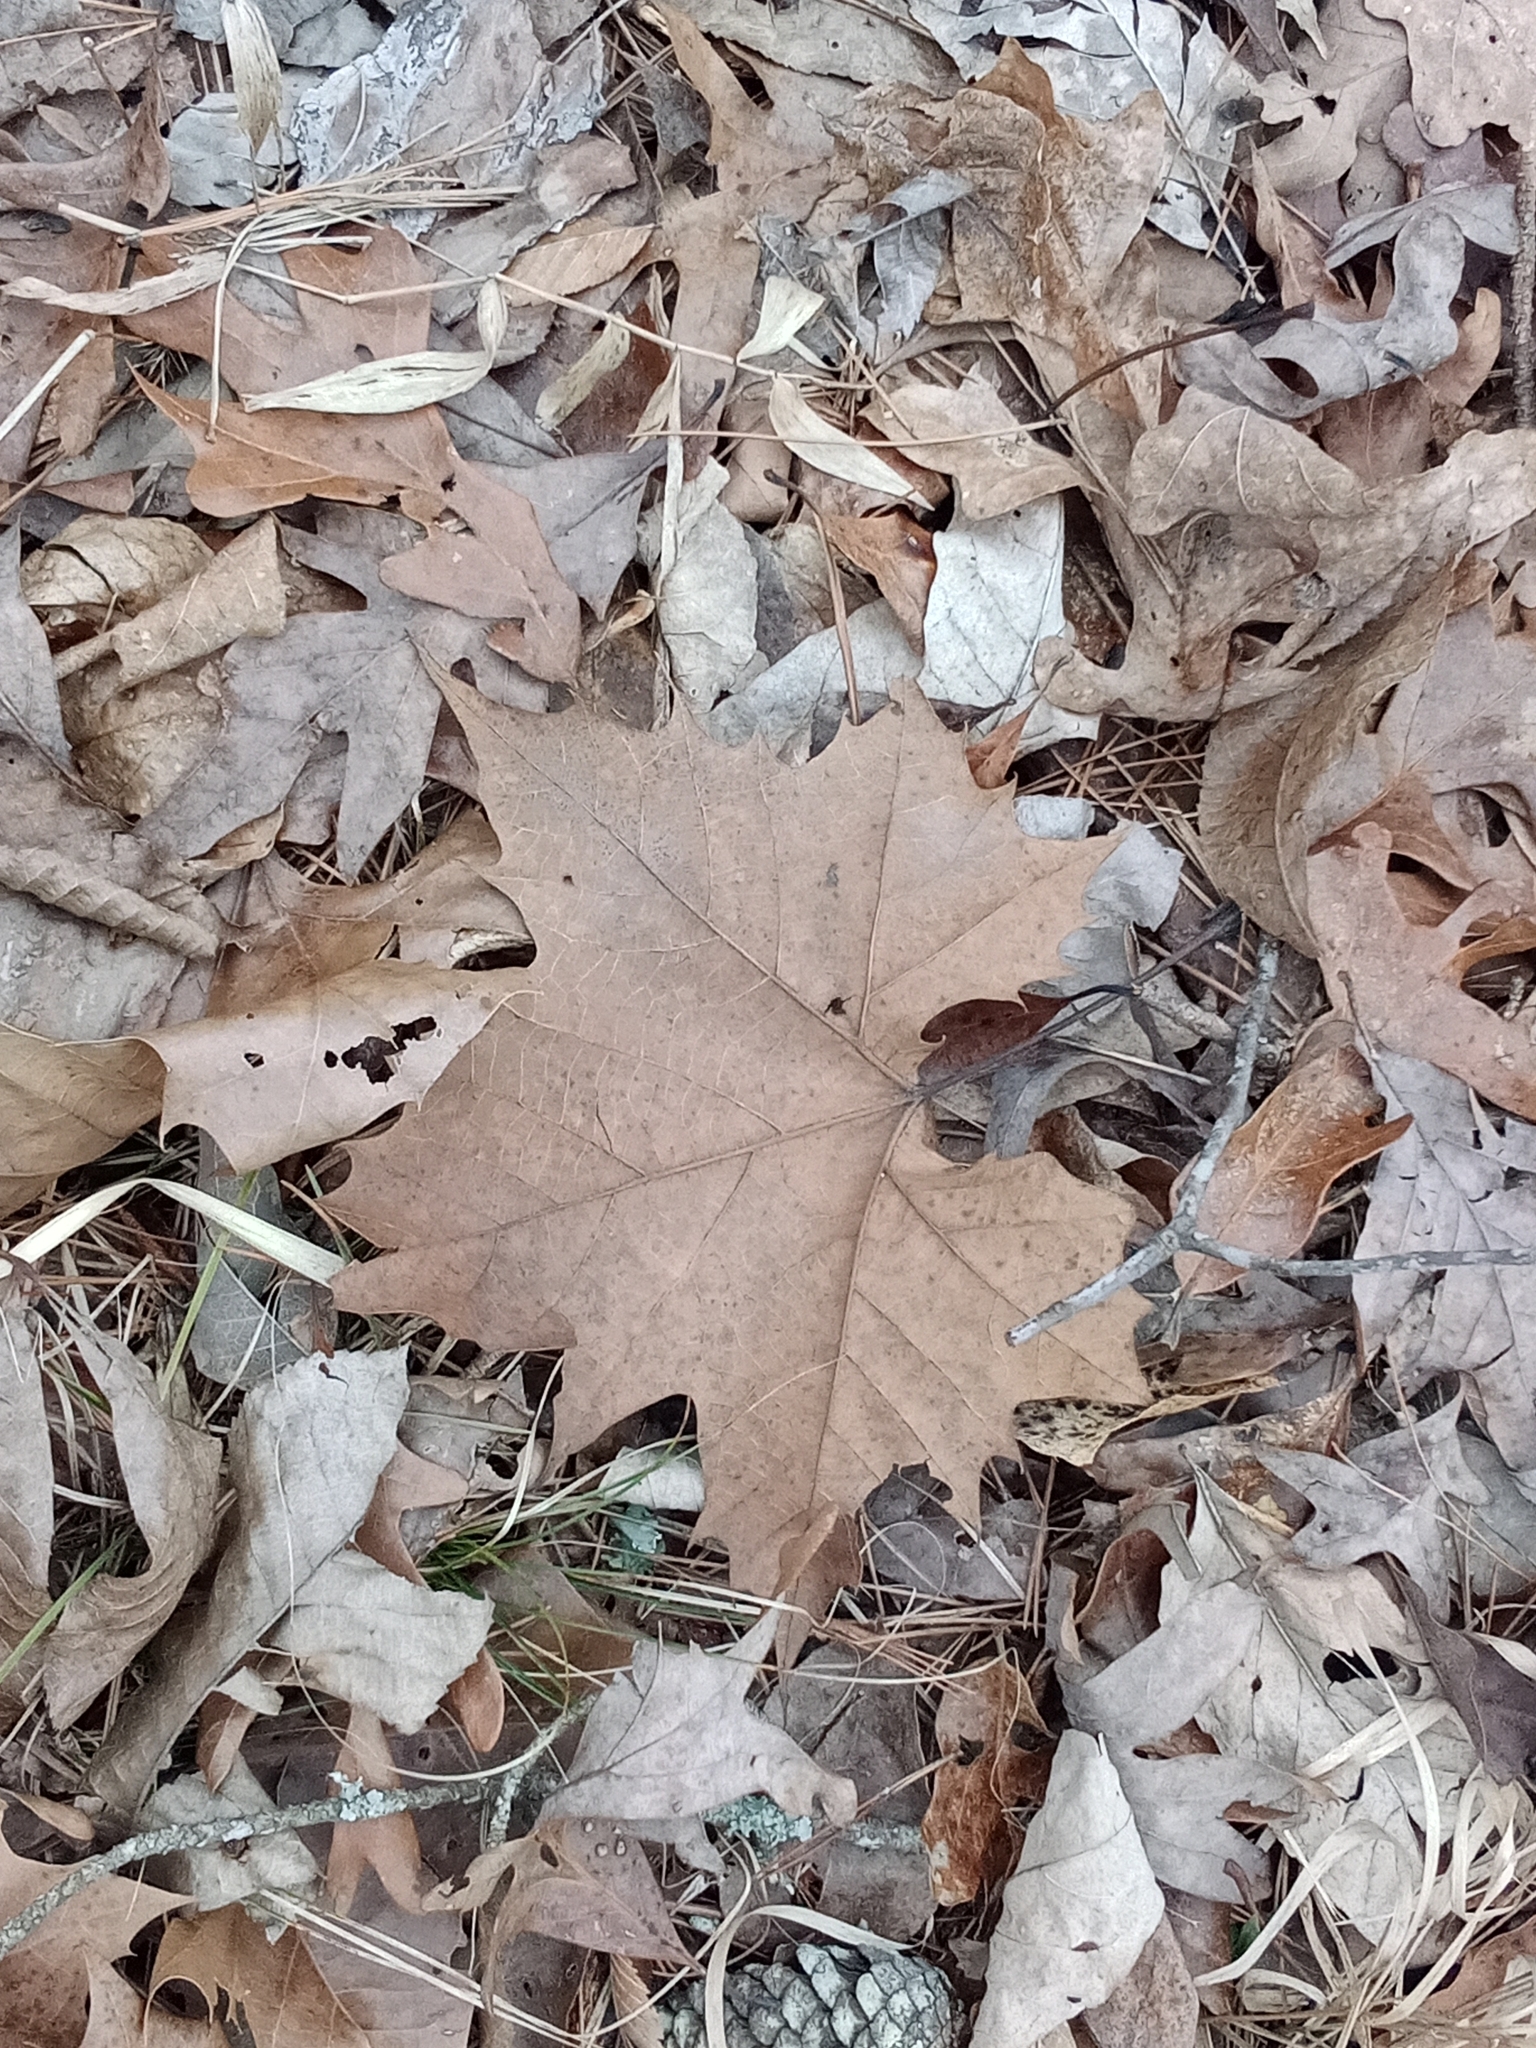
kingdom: Plantae
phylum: Tracheophyta
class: Magnoliopsida
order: Proteales
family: Platanaceae
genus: Platanus
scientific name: Platanus occidentalis
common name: American sycamore
